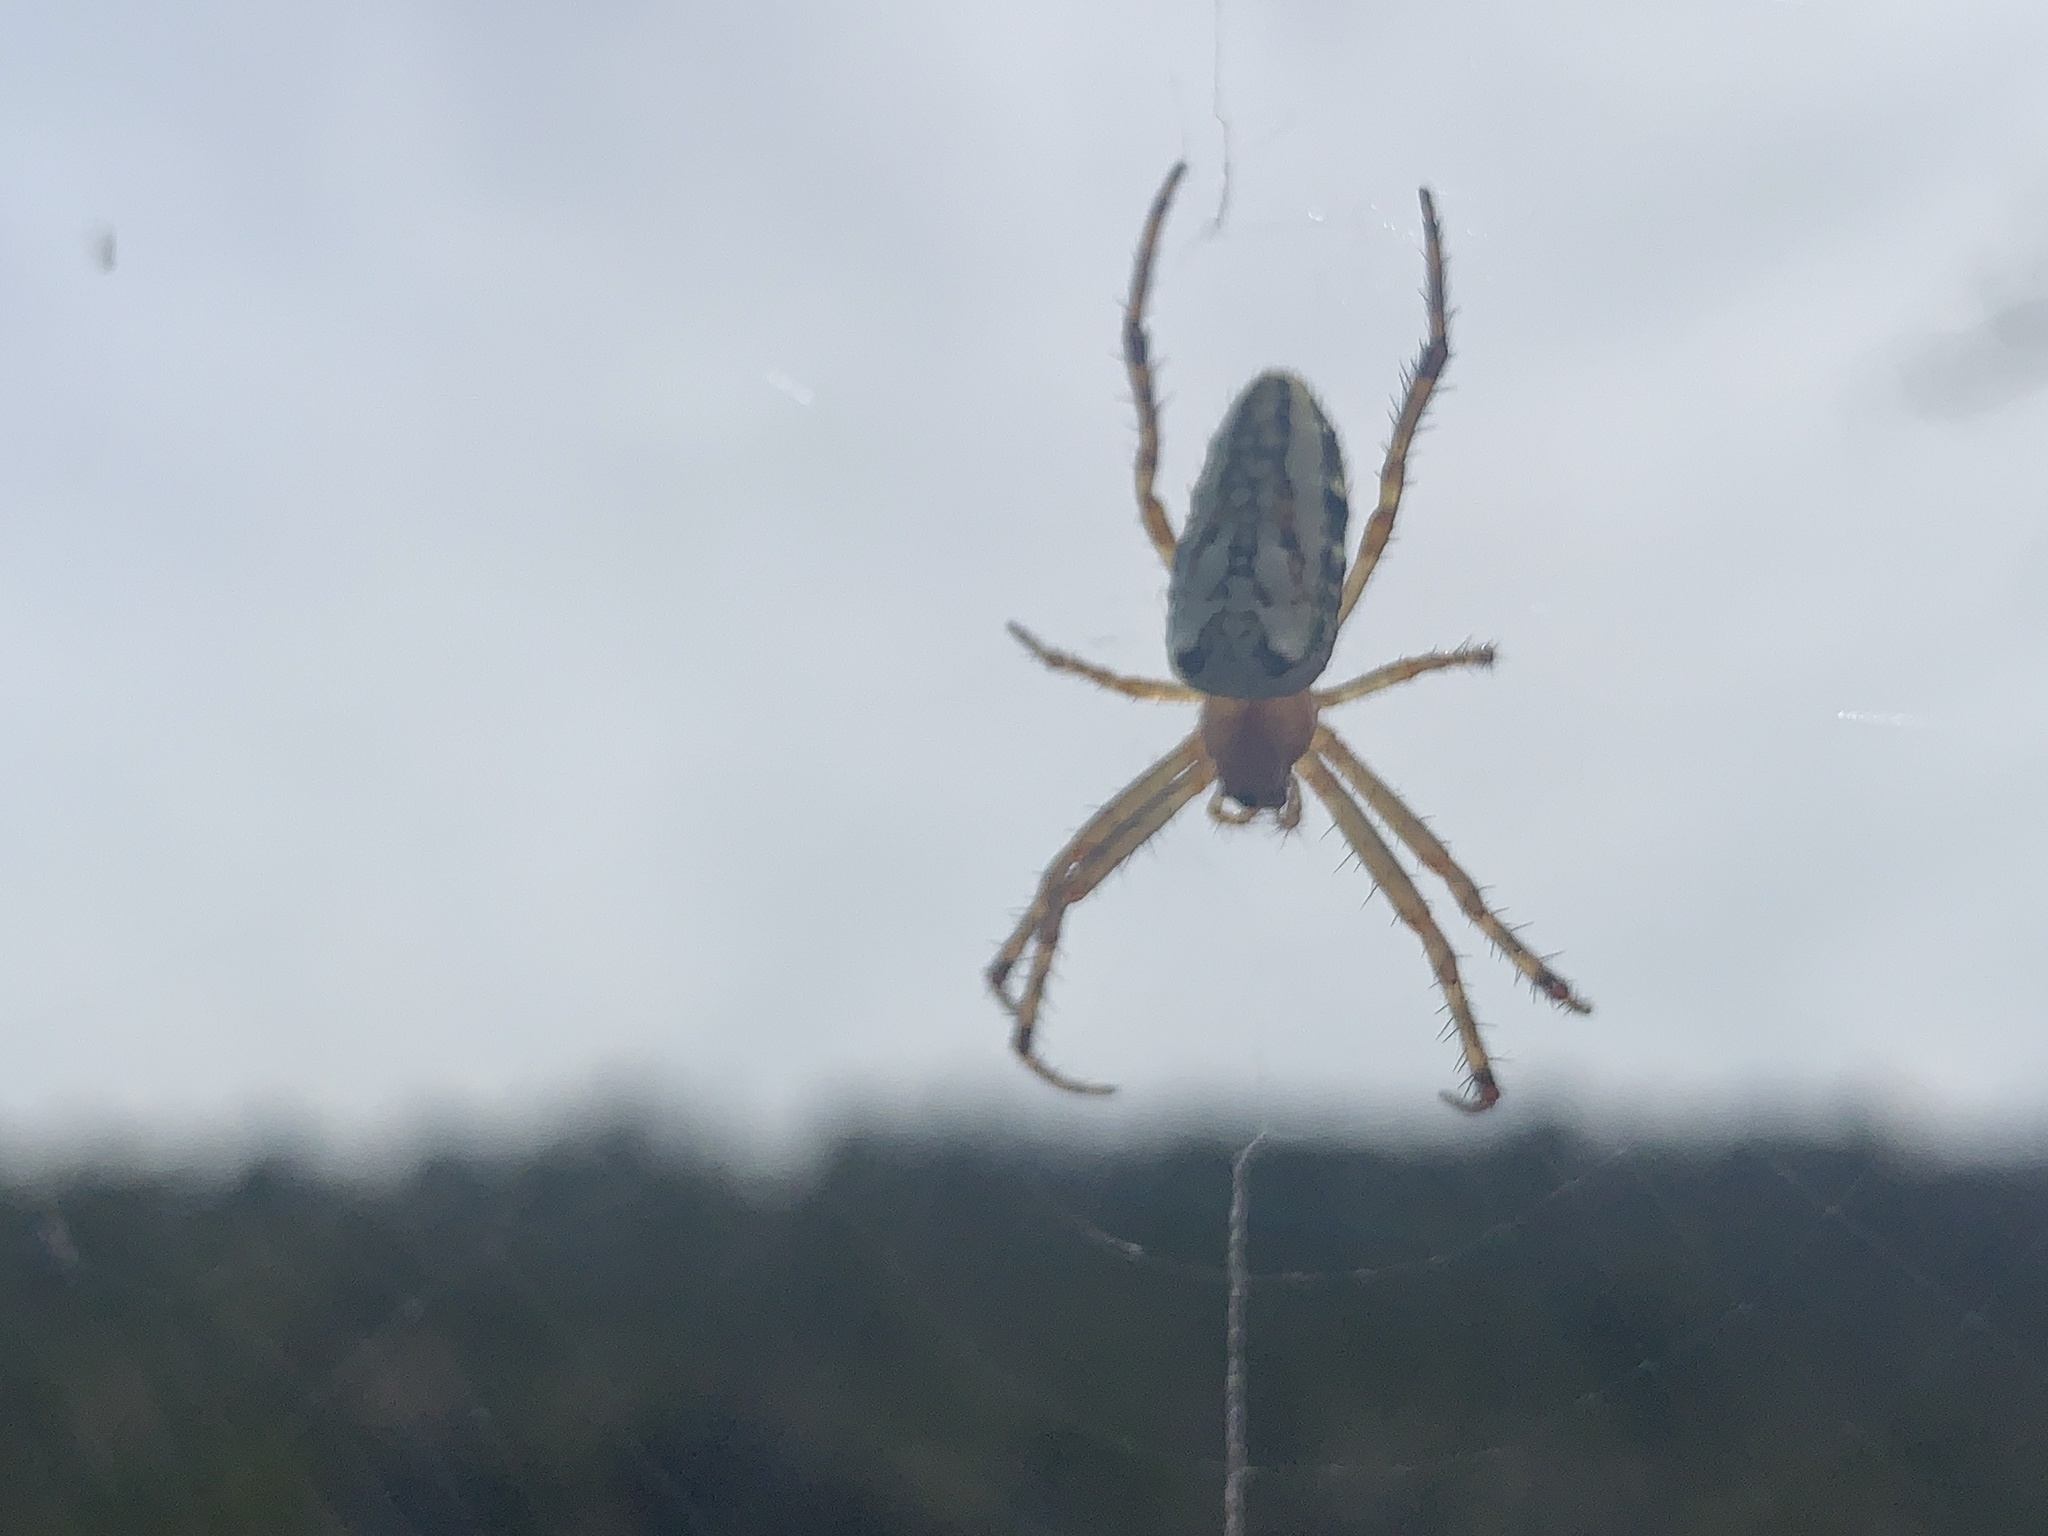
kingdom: Animalia
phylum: Arthropoda
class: Arachnida
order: Araneae
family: Araneidae
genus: Plebs
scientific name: Plebs bradleyi
